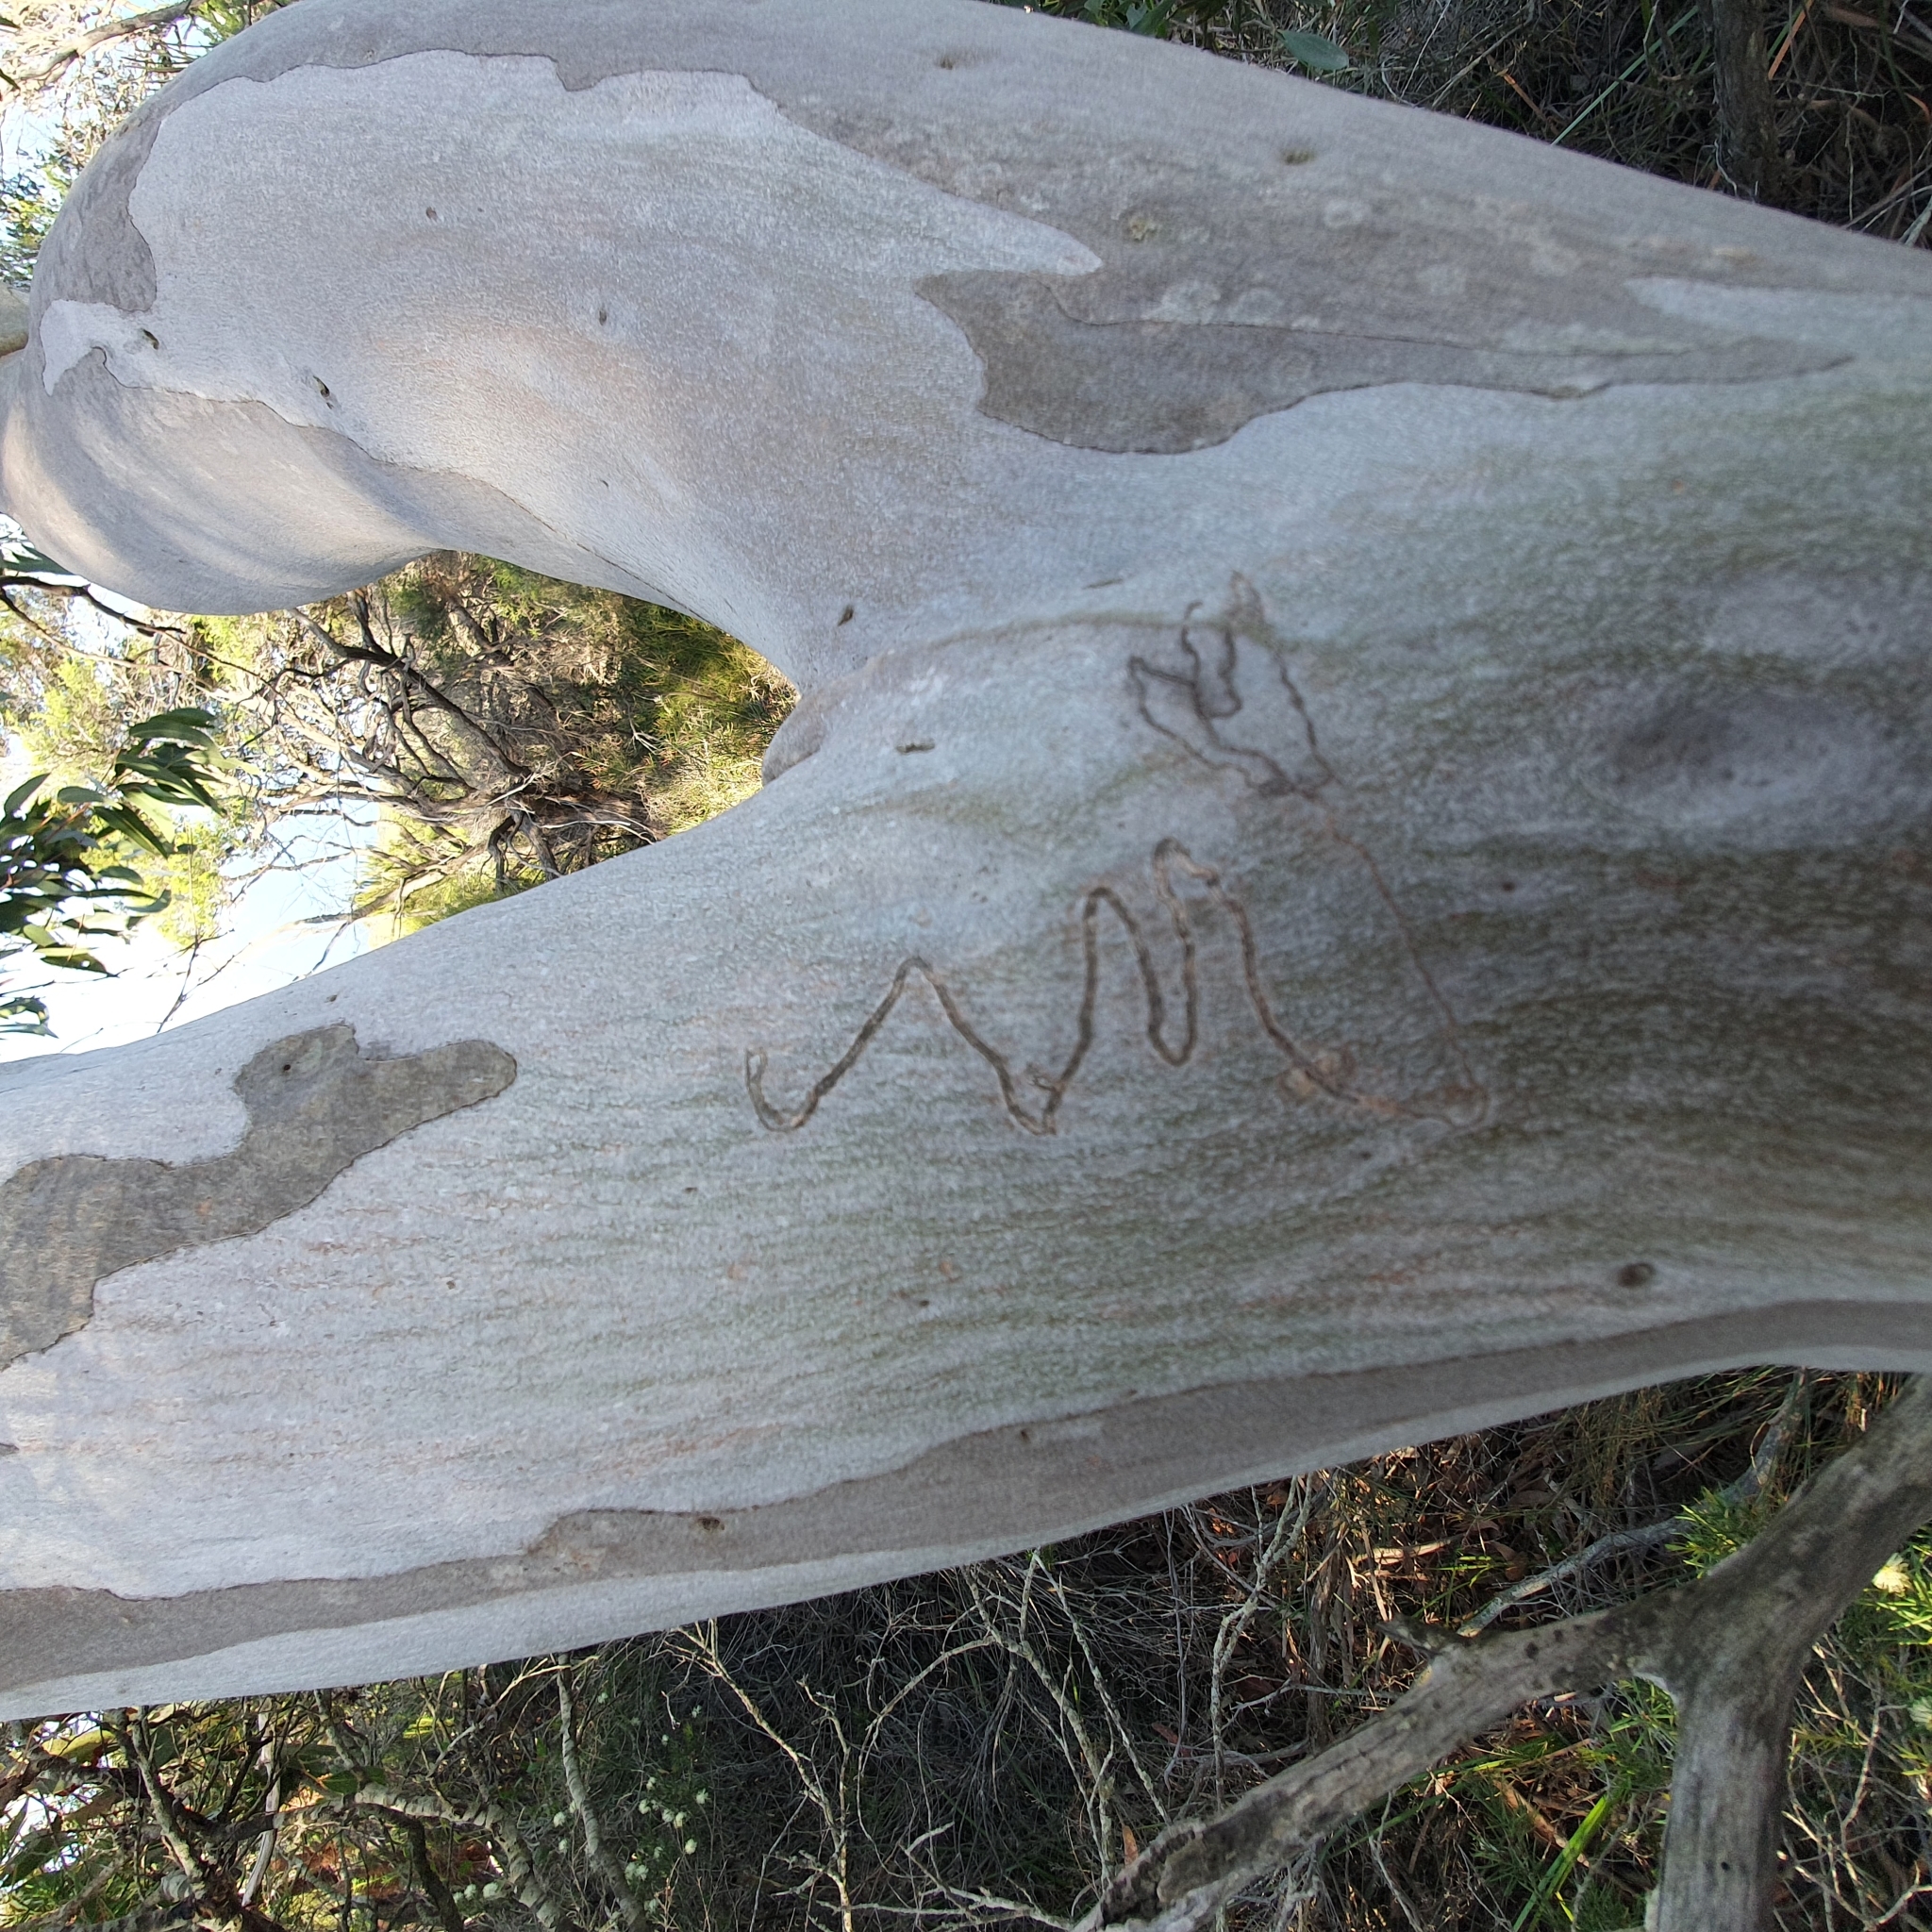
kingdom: Plantae
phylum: Tracheophyta
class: Magnoliopsida
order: Myrtales
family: Myrtaceae
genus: Eucalyptus
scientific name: Eucalyptus haemastoma
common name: Scribbly-gum
